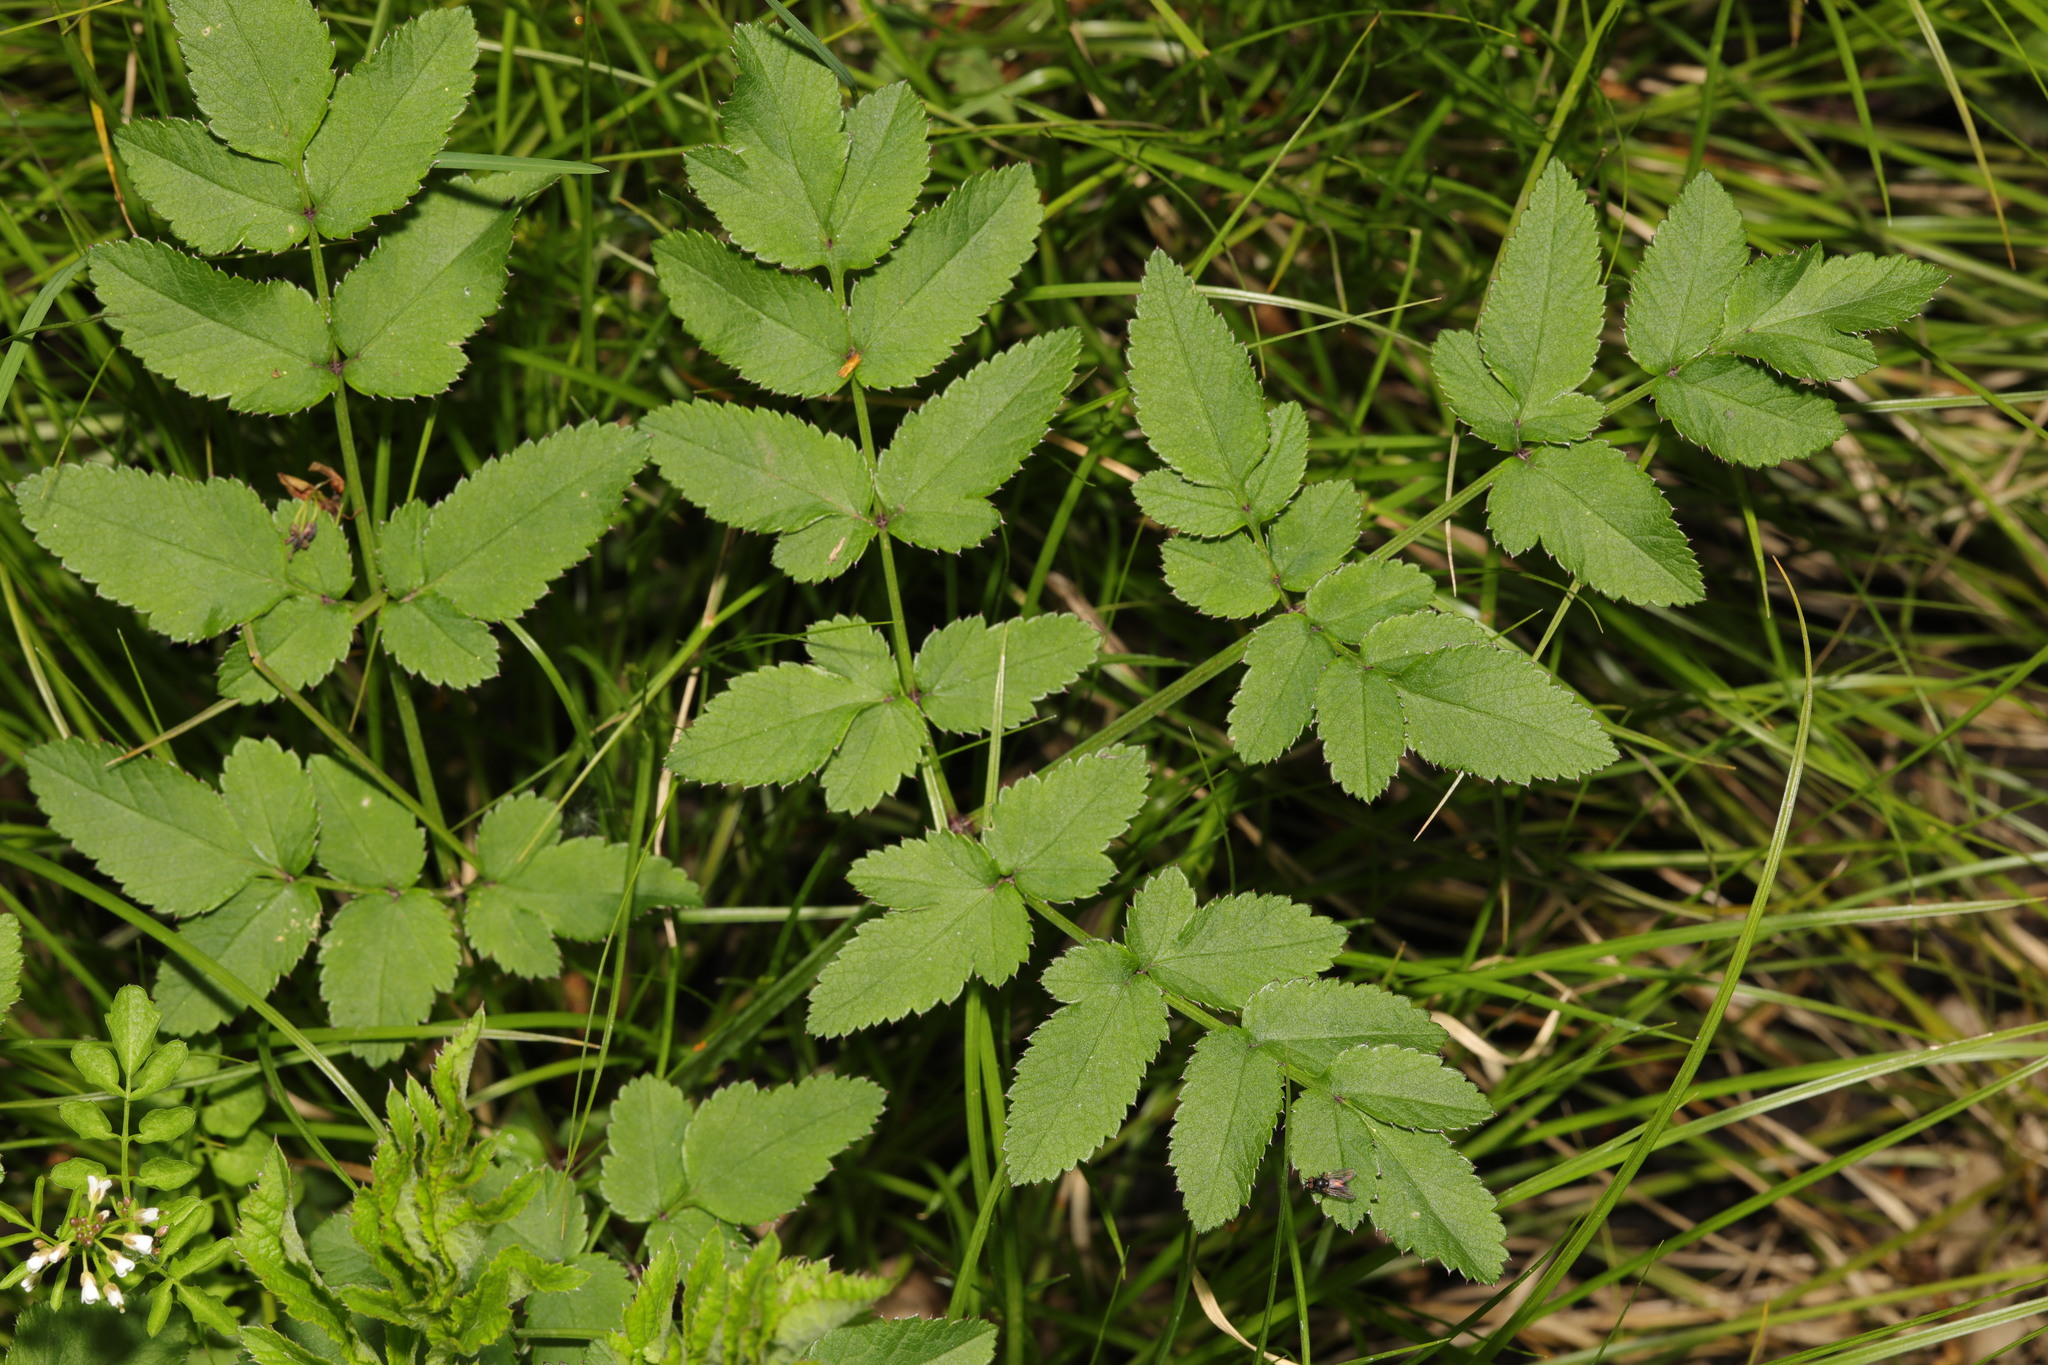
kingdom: Plantae
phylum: Tracheophyta
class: Magnoliopsida
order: Apiales
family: Apiaceae
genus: Angelica
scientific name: Angelica sylvestris
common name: Wild angelica
